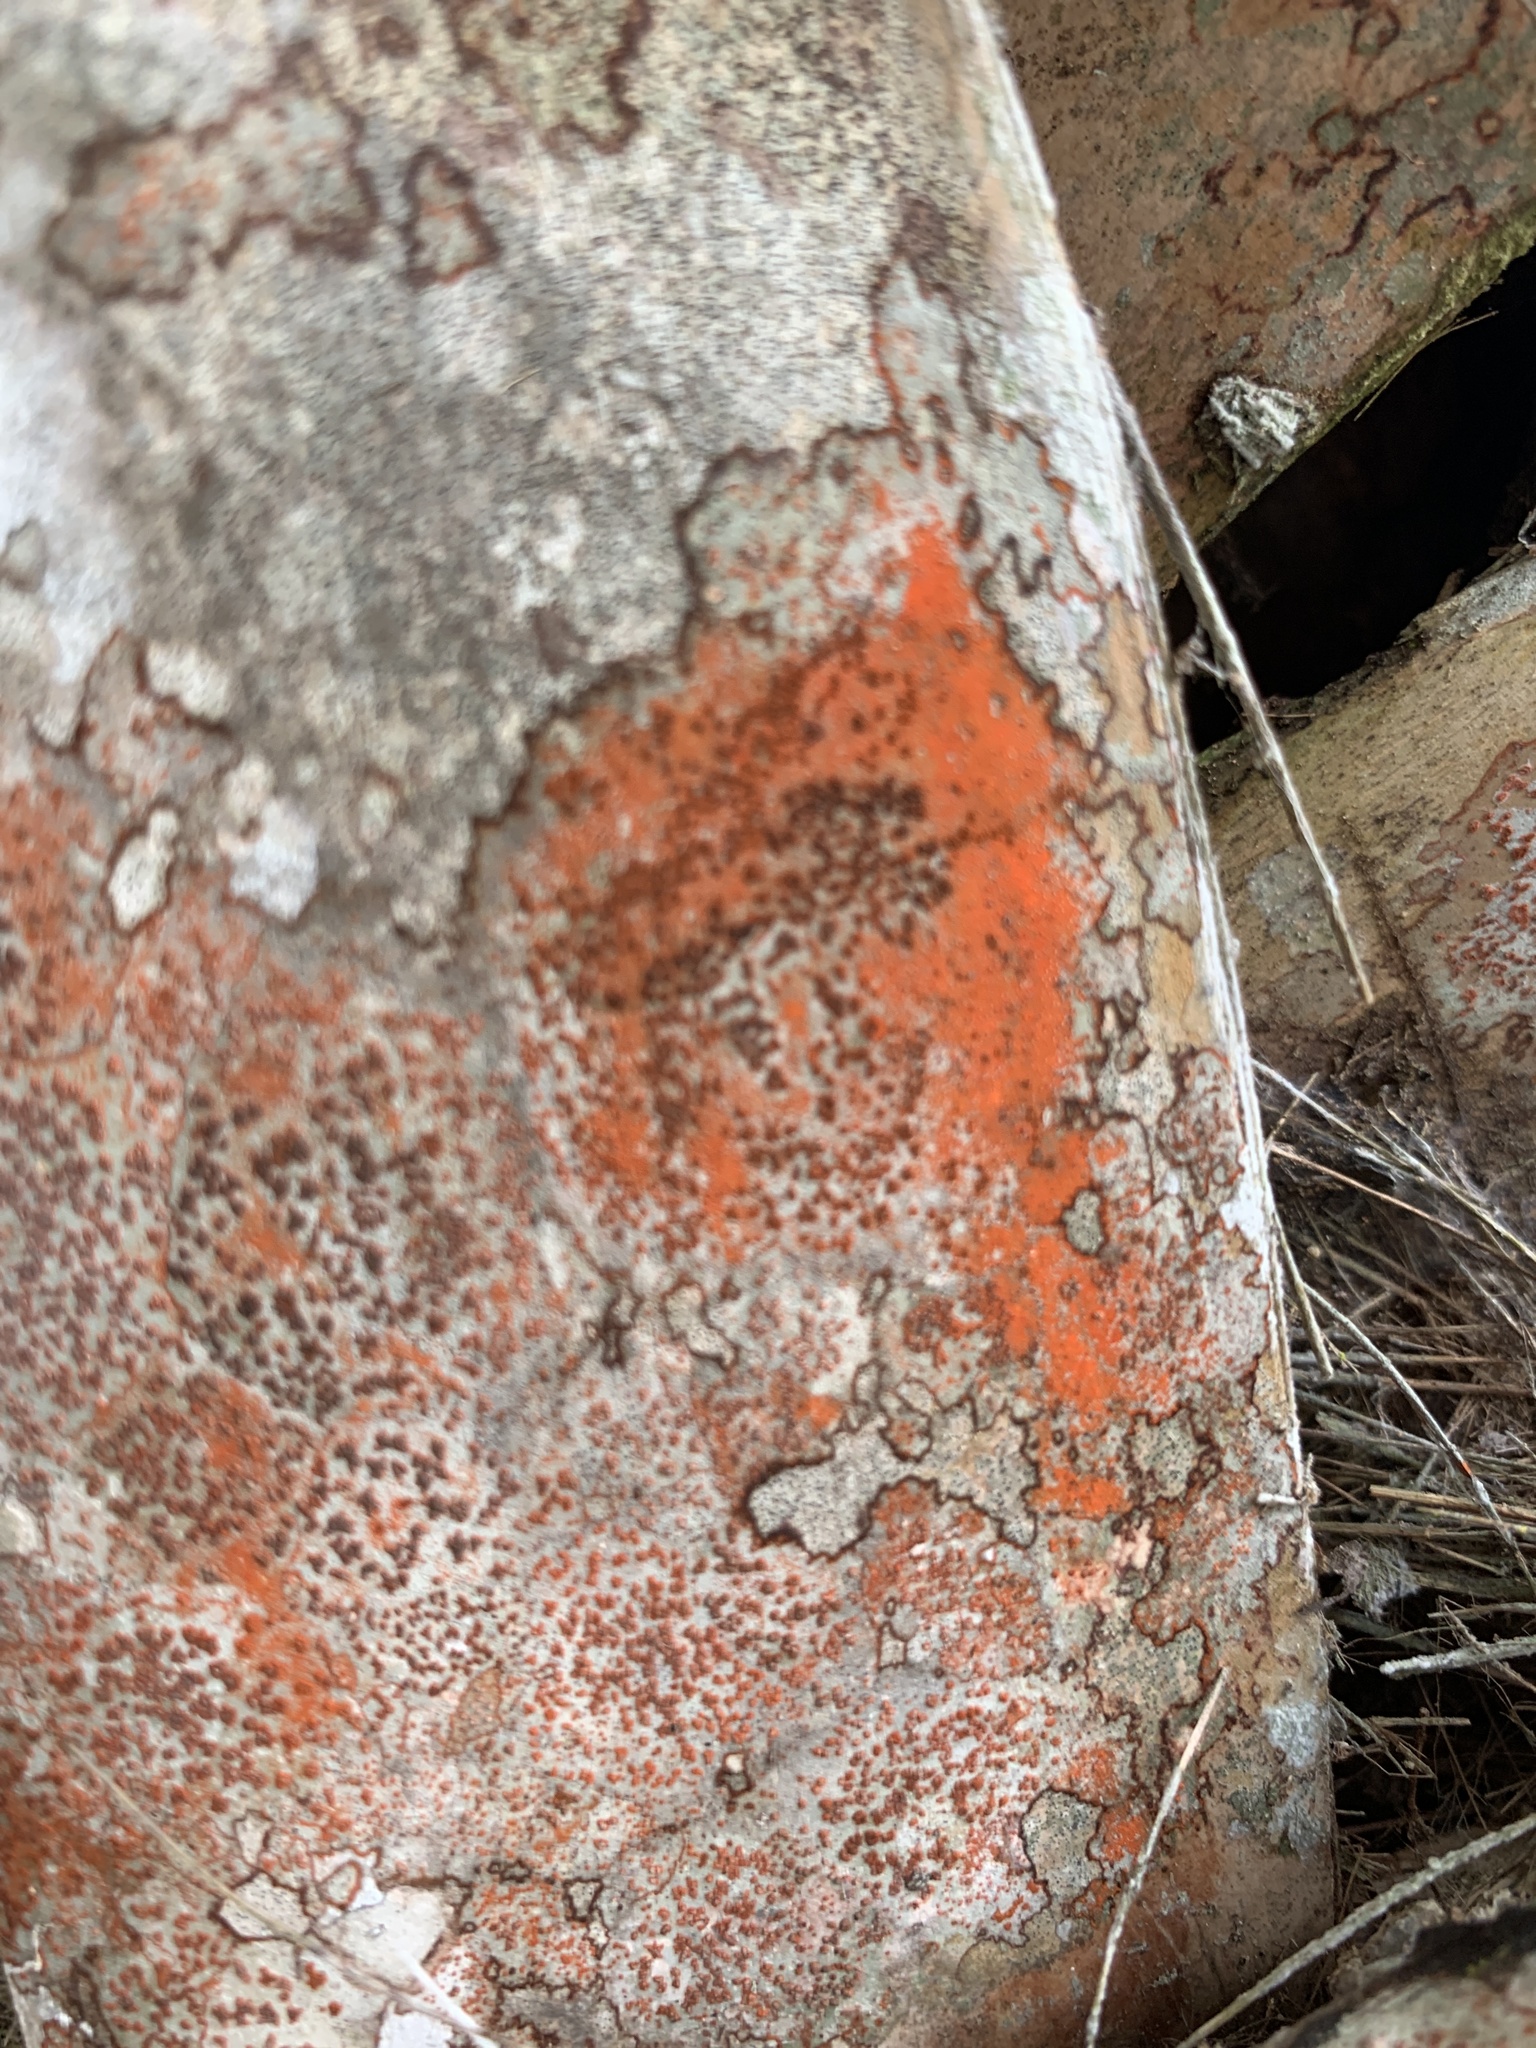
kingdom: Fungi
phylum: Ascomycota
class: Arthoniomycetes
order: Arthoniales
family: Arthoniaceae
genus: Arthonia
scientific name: Arthonia rubrocincta
